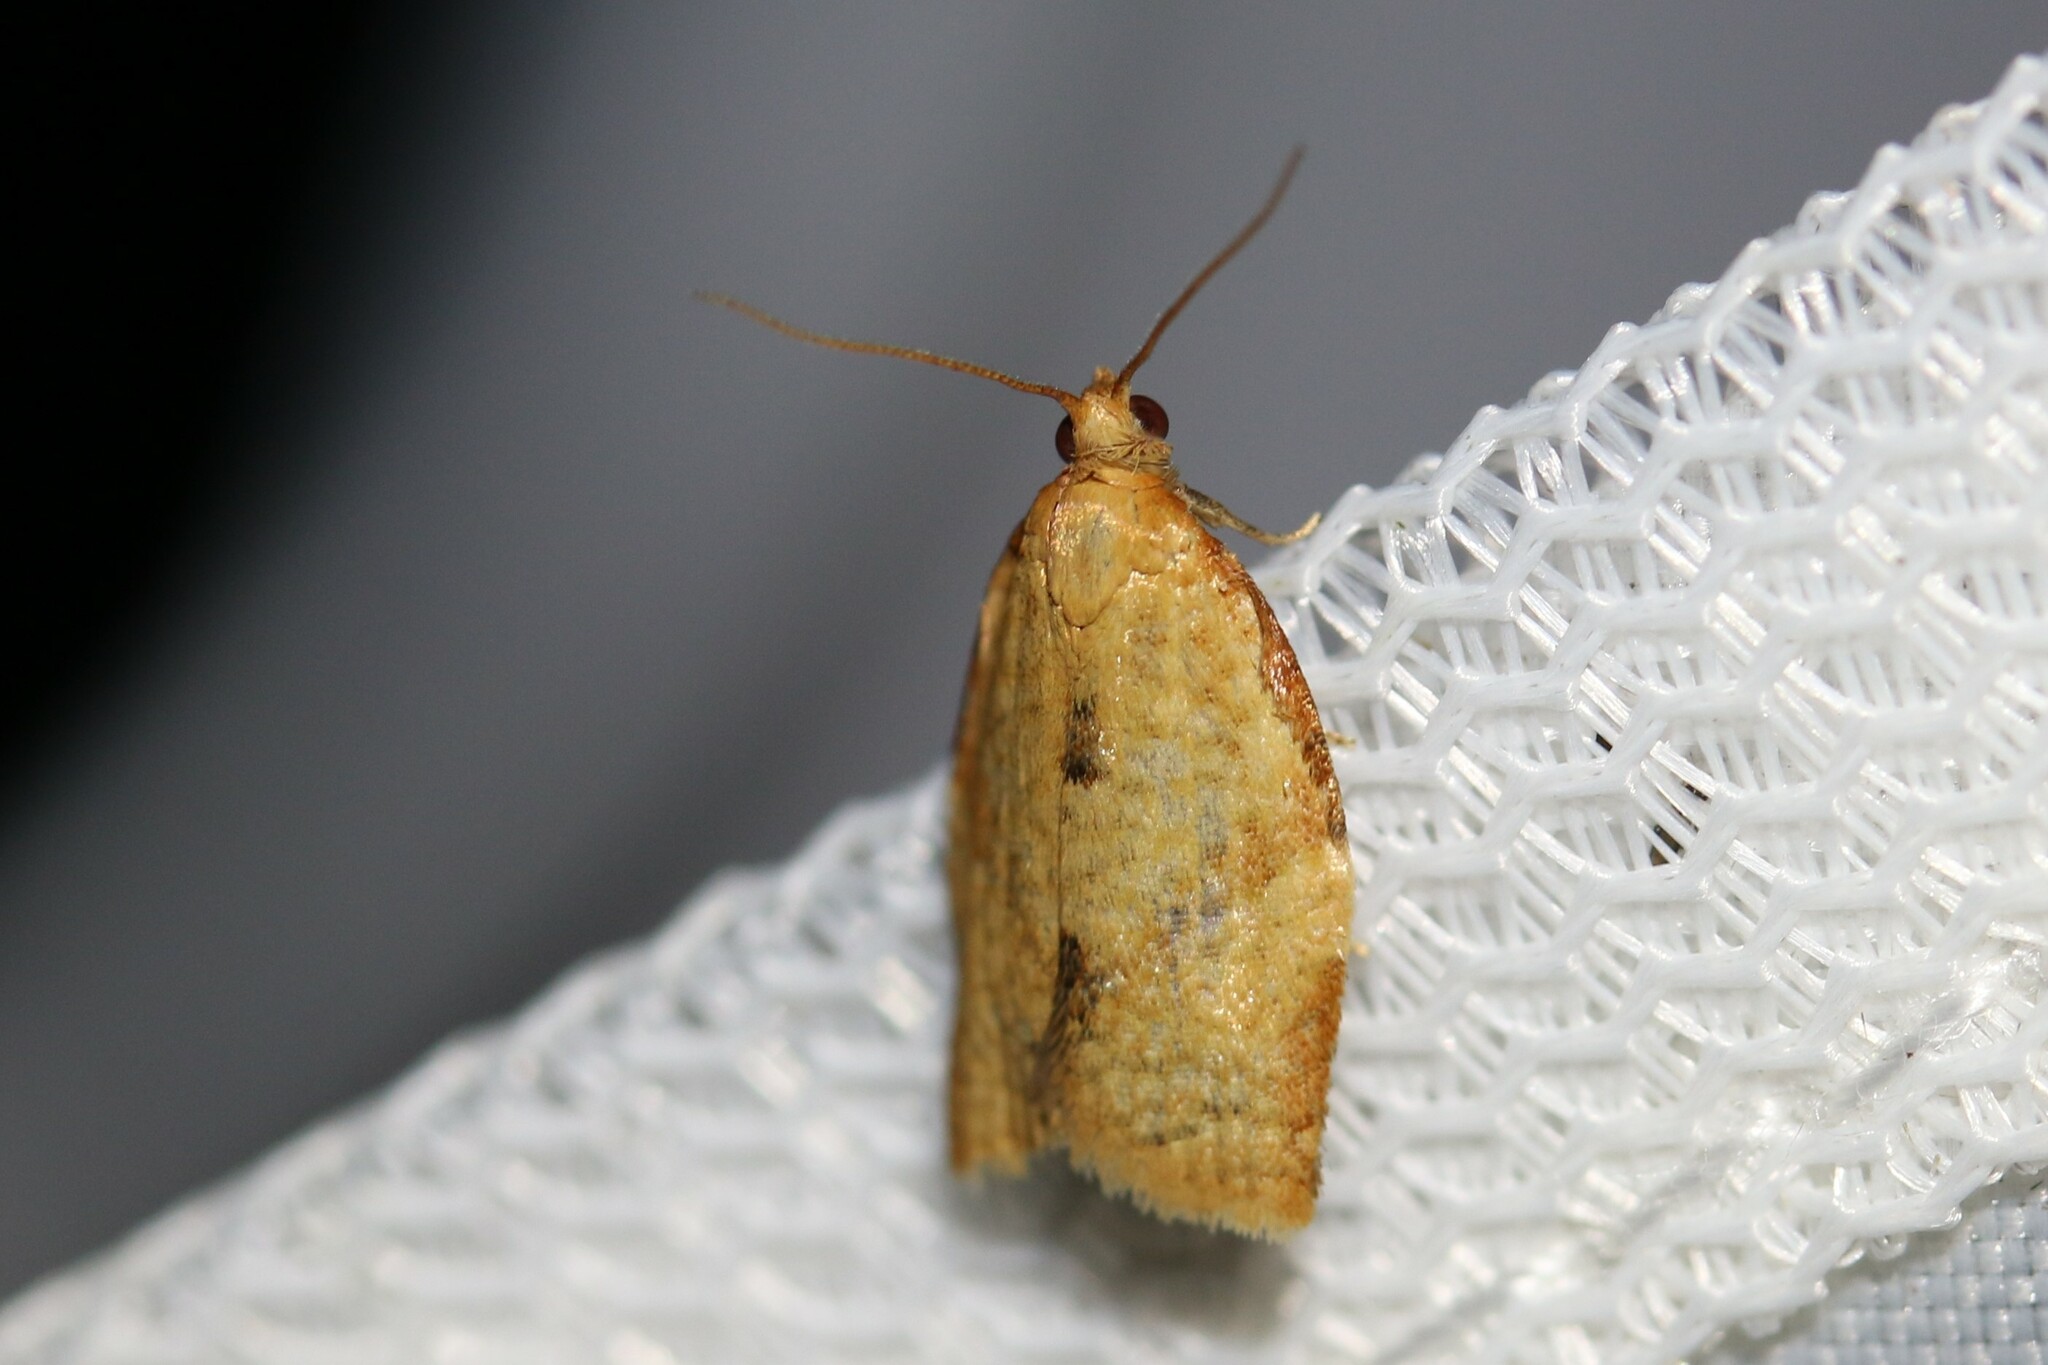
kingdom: Animalia
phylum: Arthropoda
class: Insecta
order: Lepidoptera
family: Tortricidae
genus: Clepsis
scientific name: Clepsis consimilana
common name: Privet tortrix
